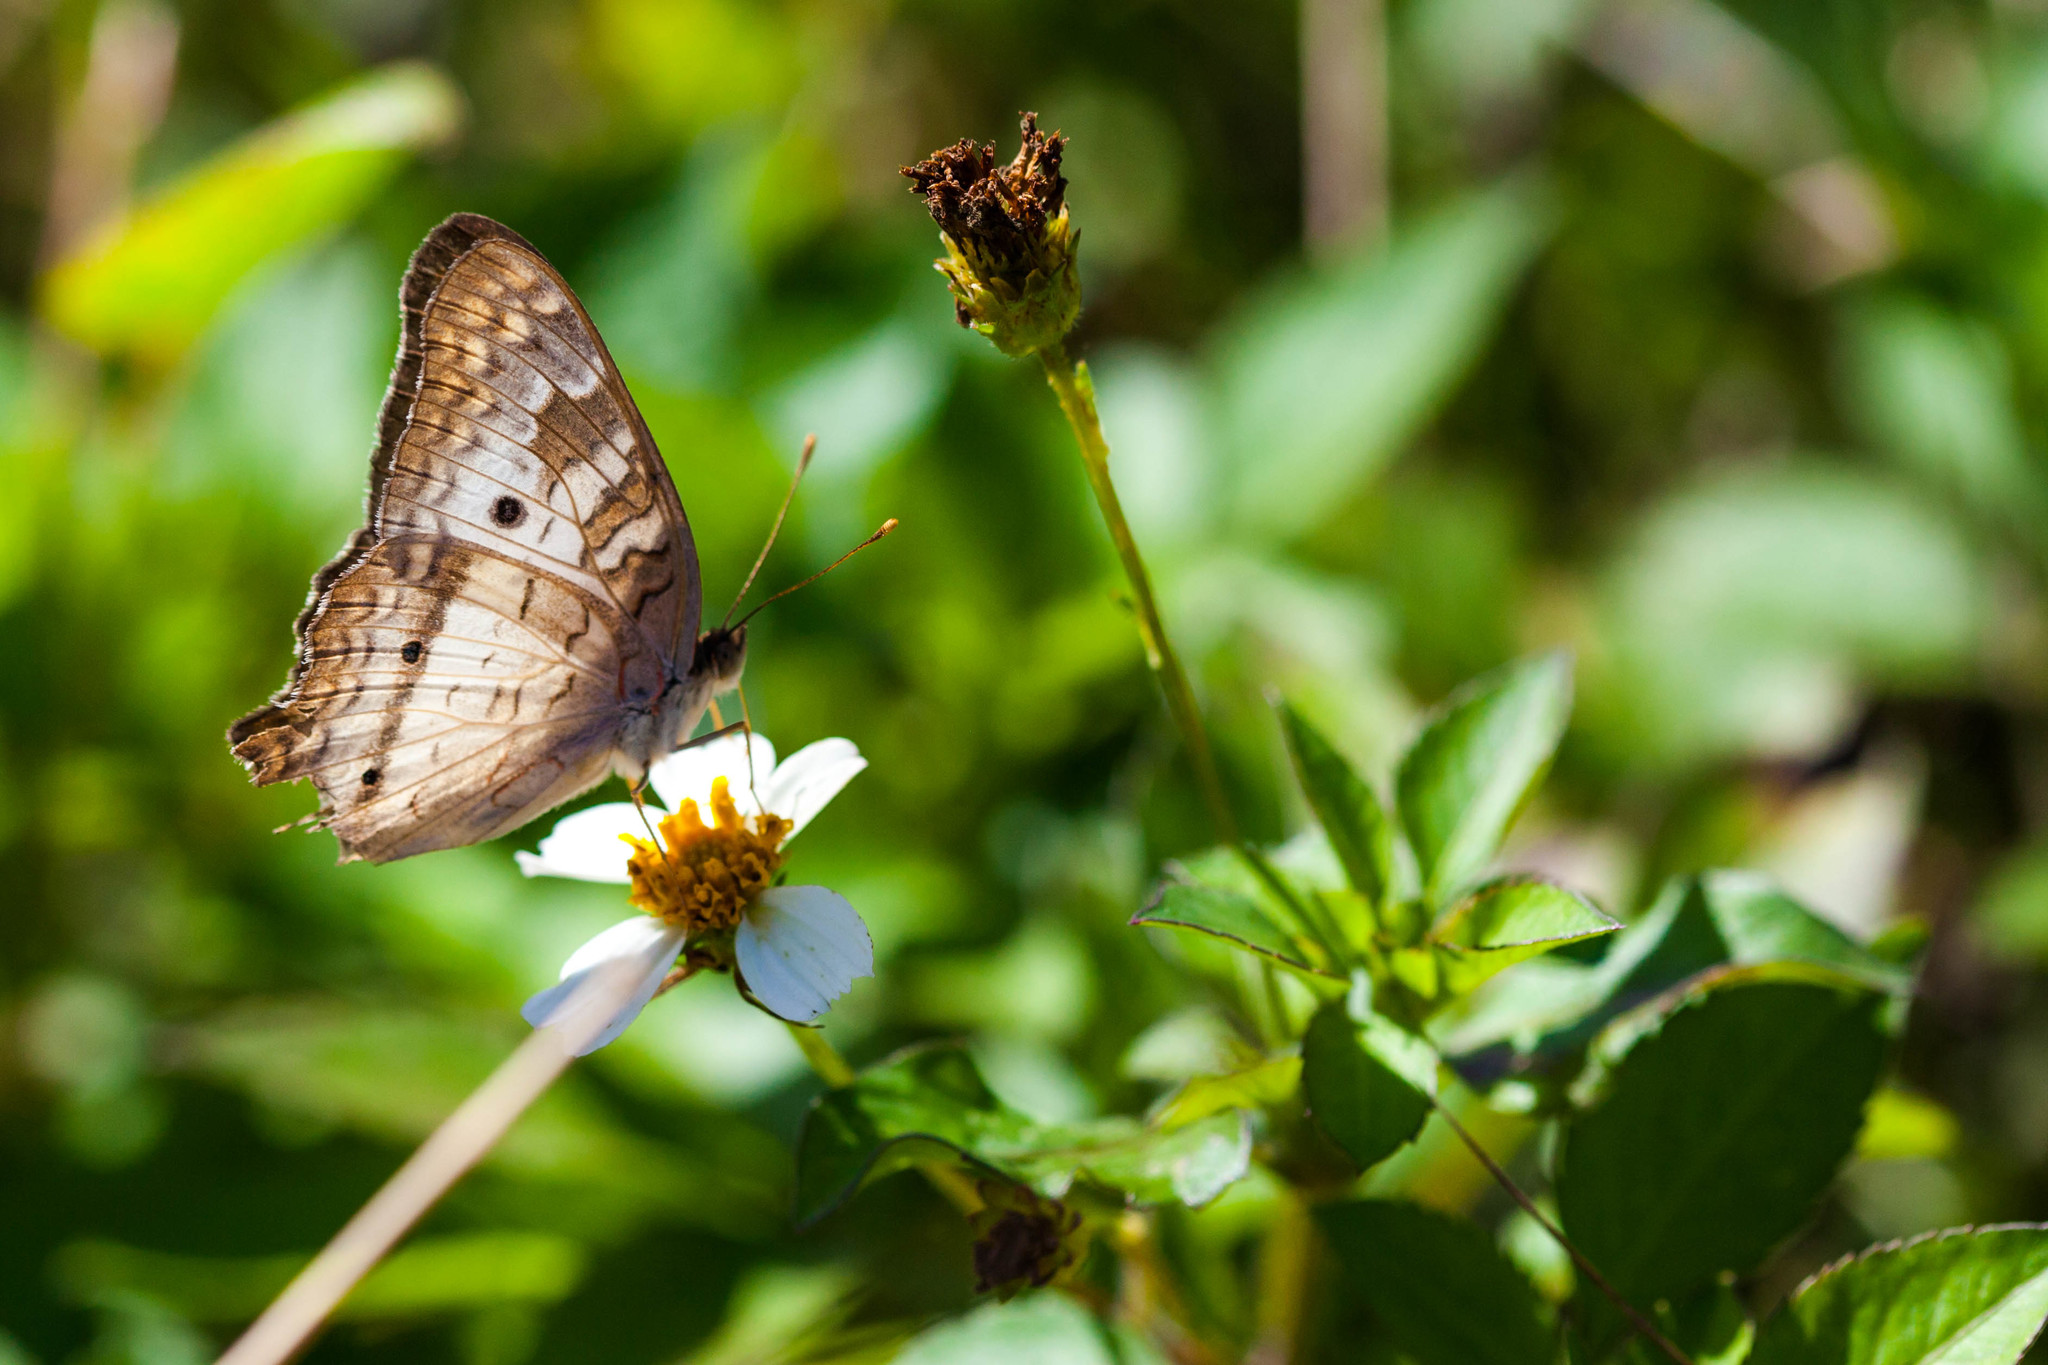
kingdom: Animalia
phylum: Arthropoda
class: Insecta
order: Lepidoptera
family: Nymphalidae
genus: Anartia
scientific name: Anartia jatrophae
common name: White peacock
